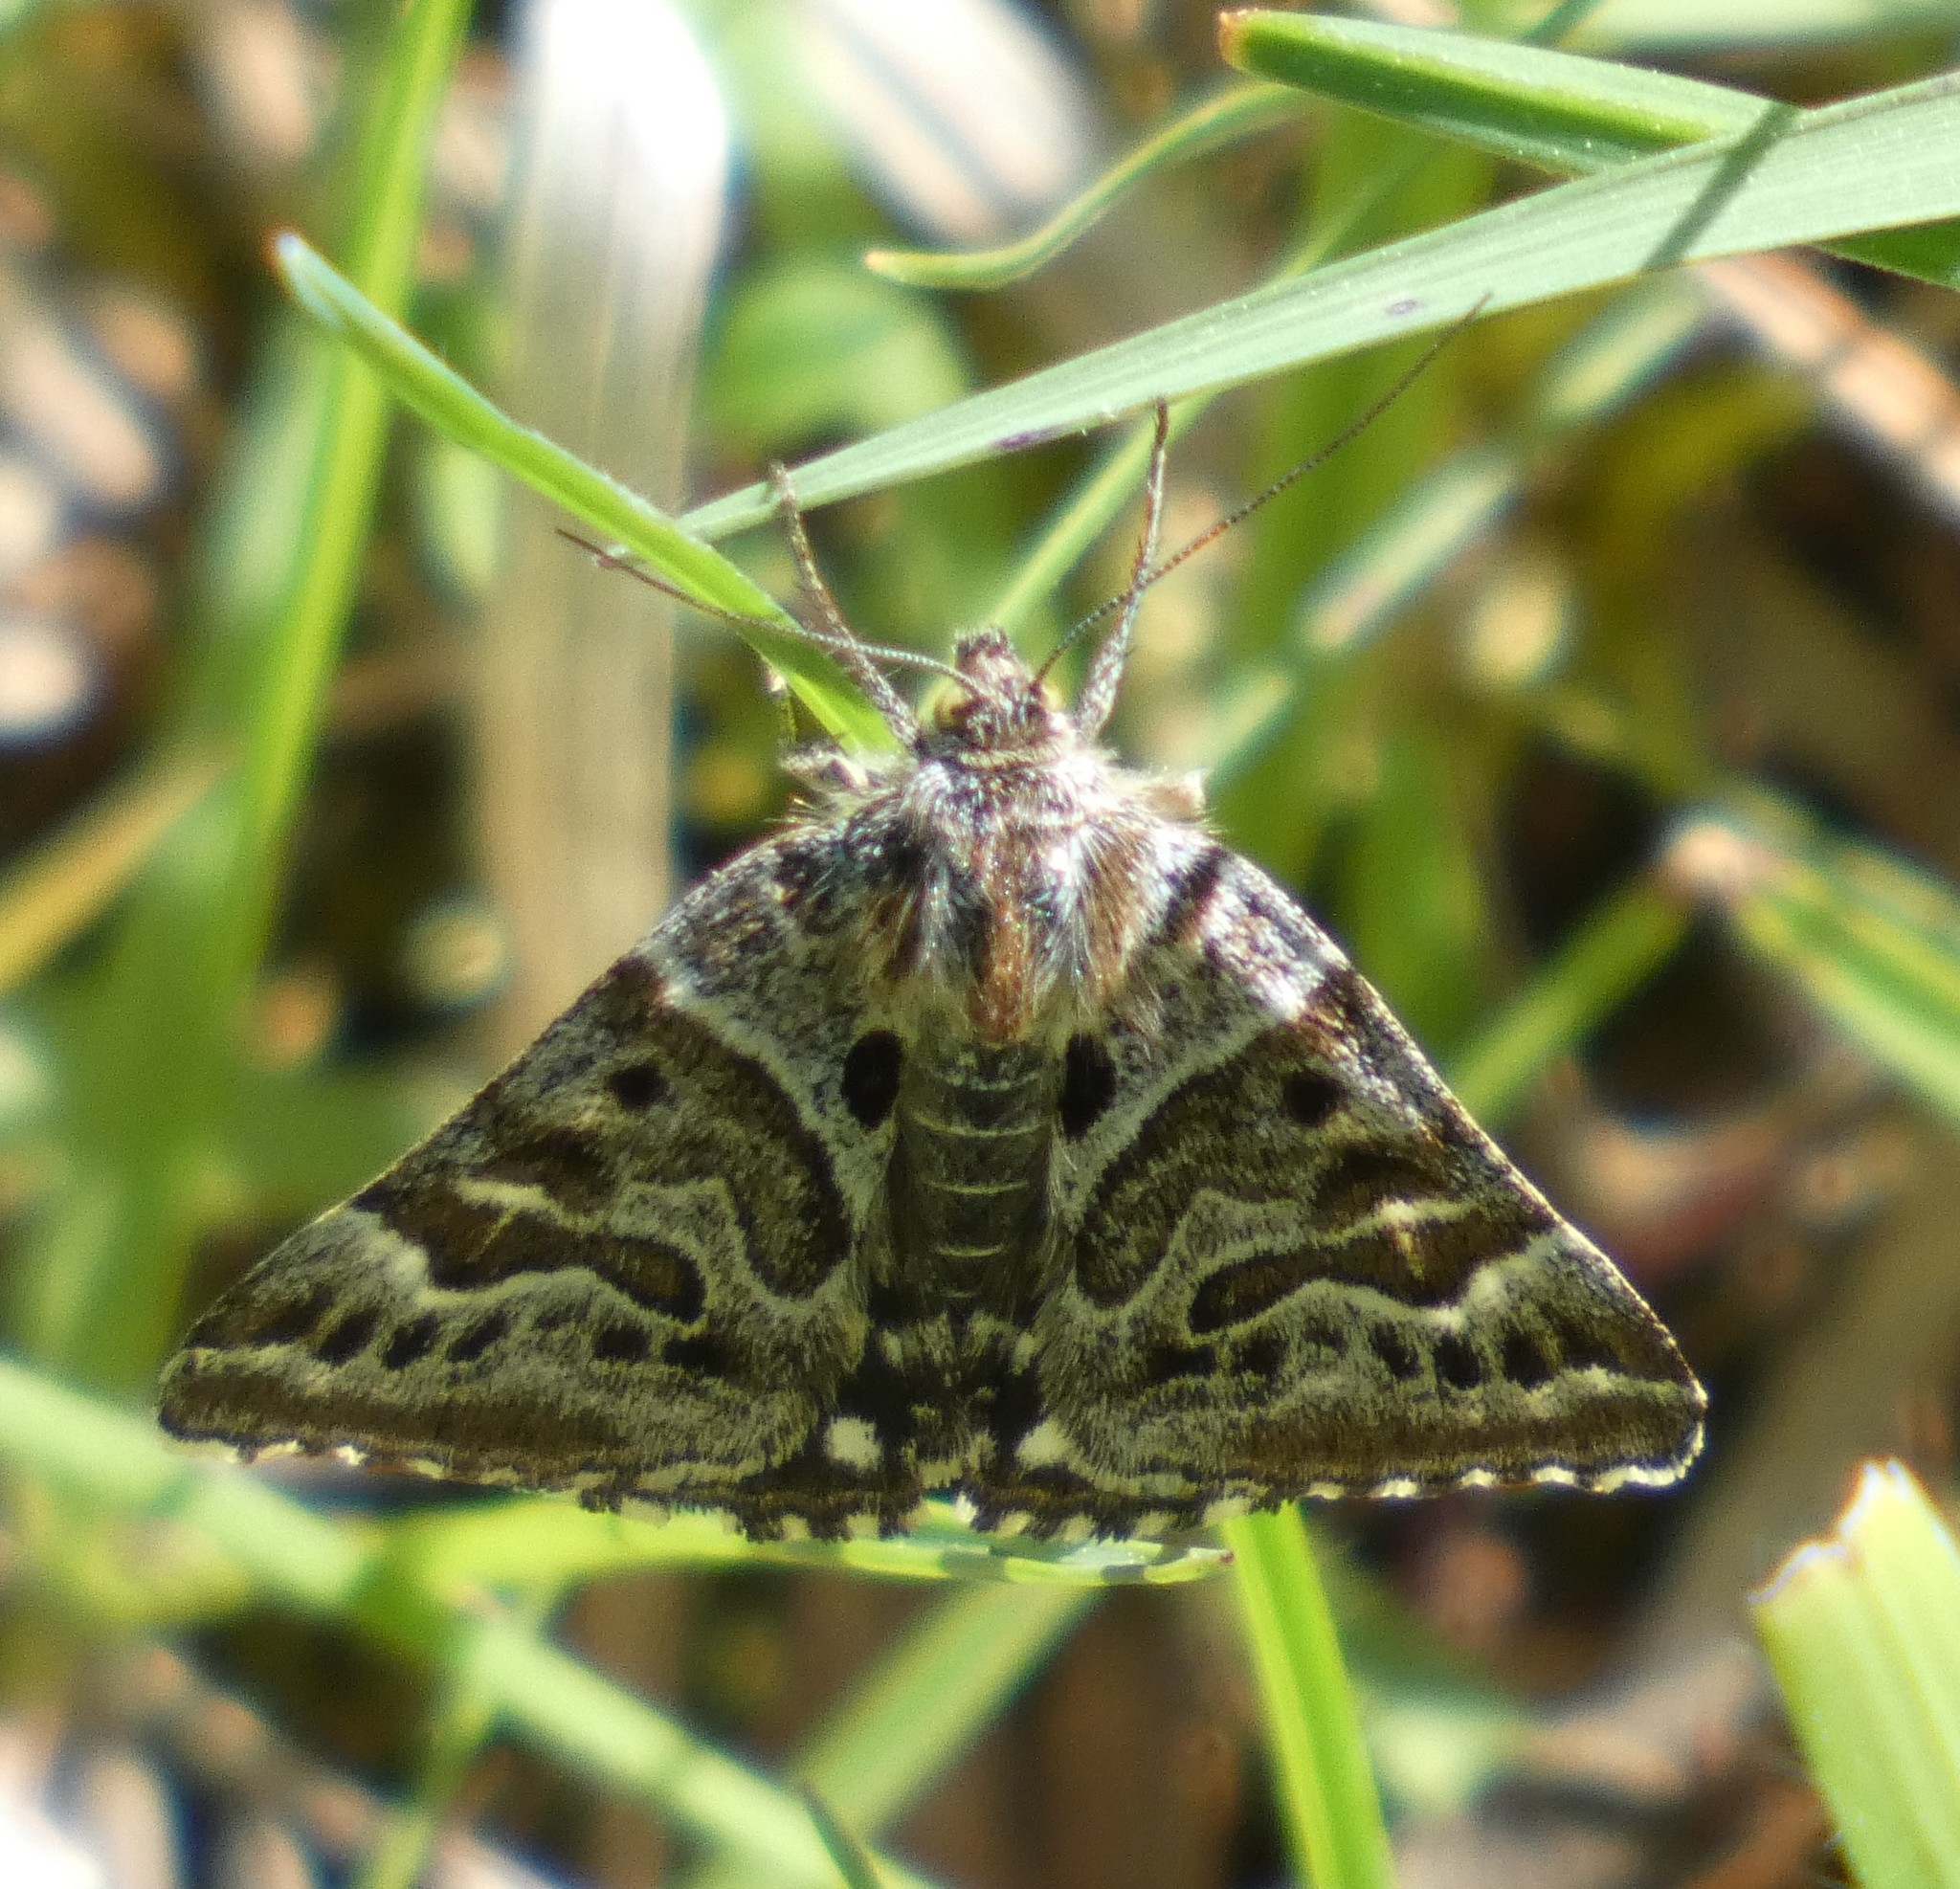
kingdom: Animalia
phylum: Arthropoda
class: Insecta
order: Lepidoptera
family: Erebidae
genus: Callistege
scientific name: Callistege mi
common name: Mother shipton
